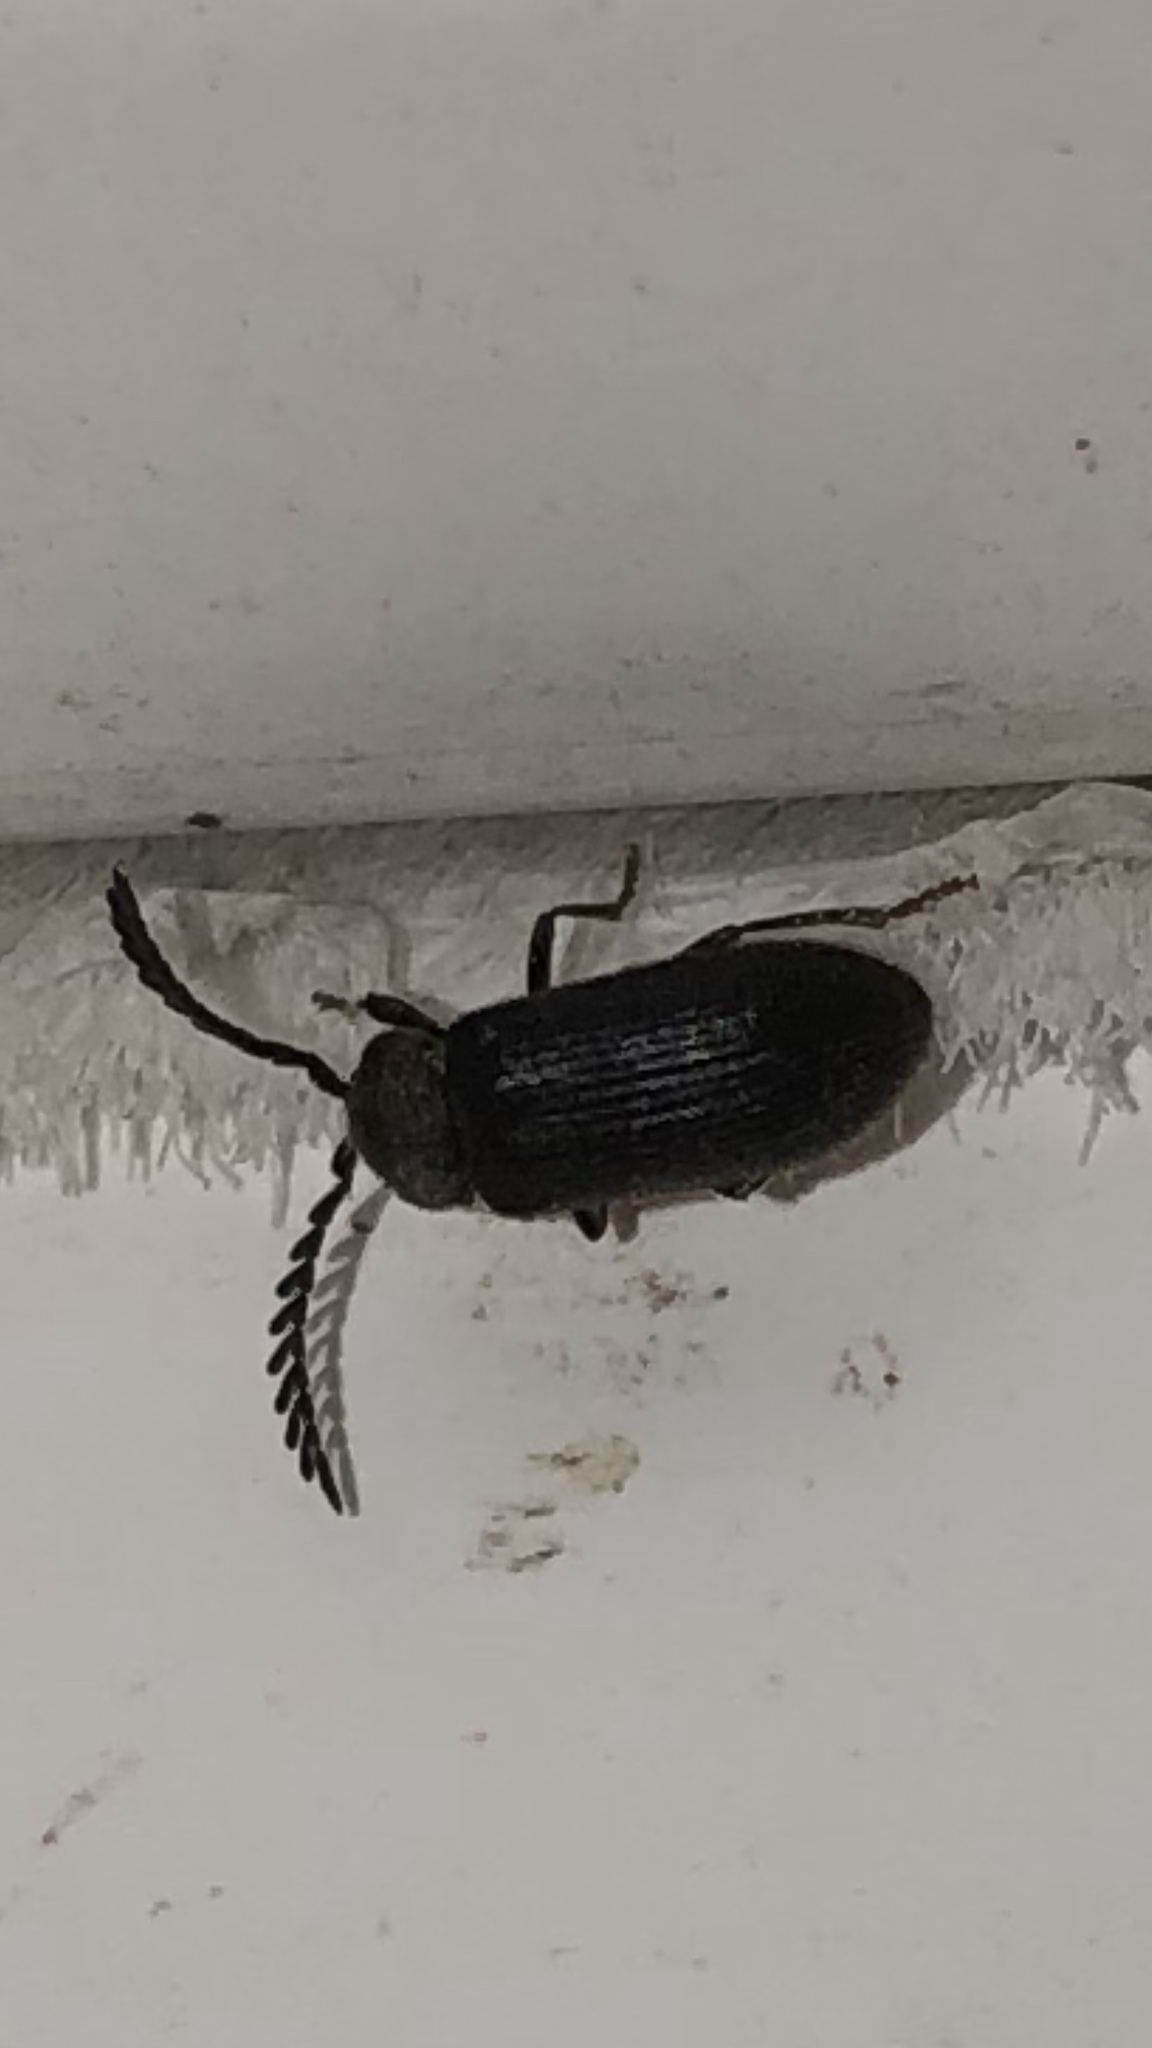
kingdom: Animalia
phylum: Arthropoda
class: Insecta
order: Coleoptera
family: Cerophytidae
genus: Cerophytum
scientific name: Cerophytum pulsator
